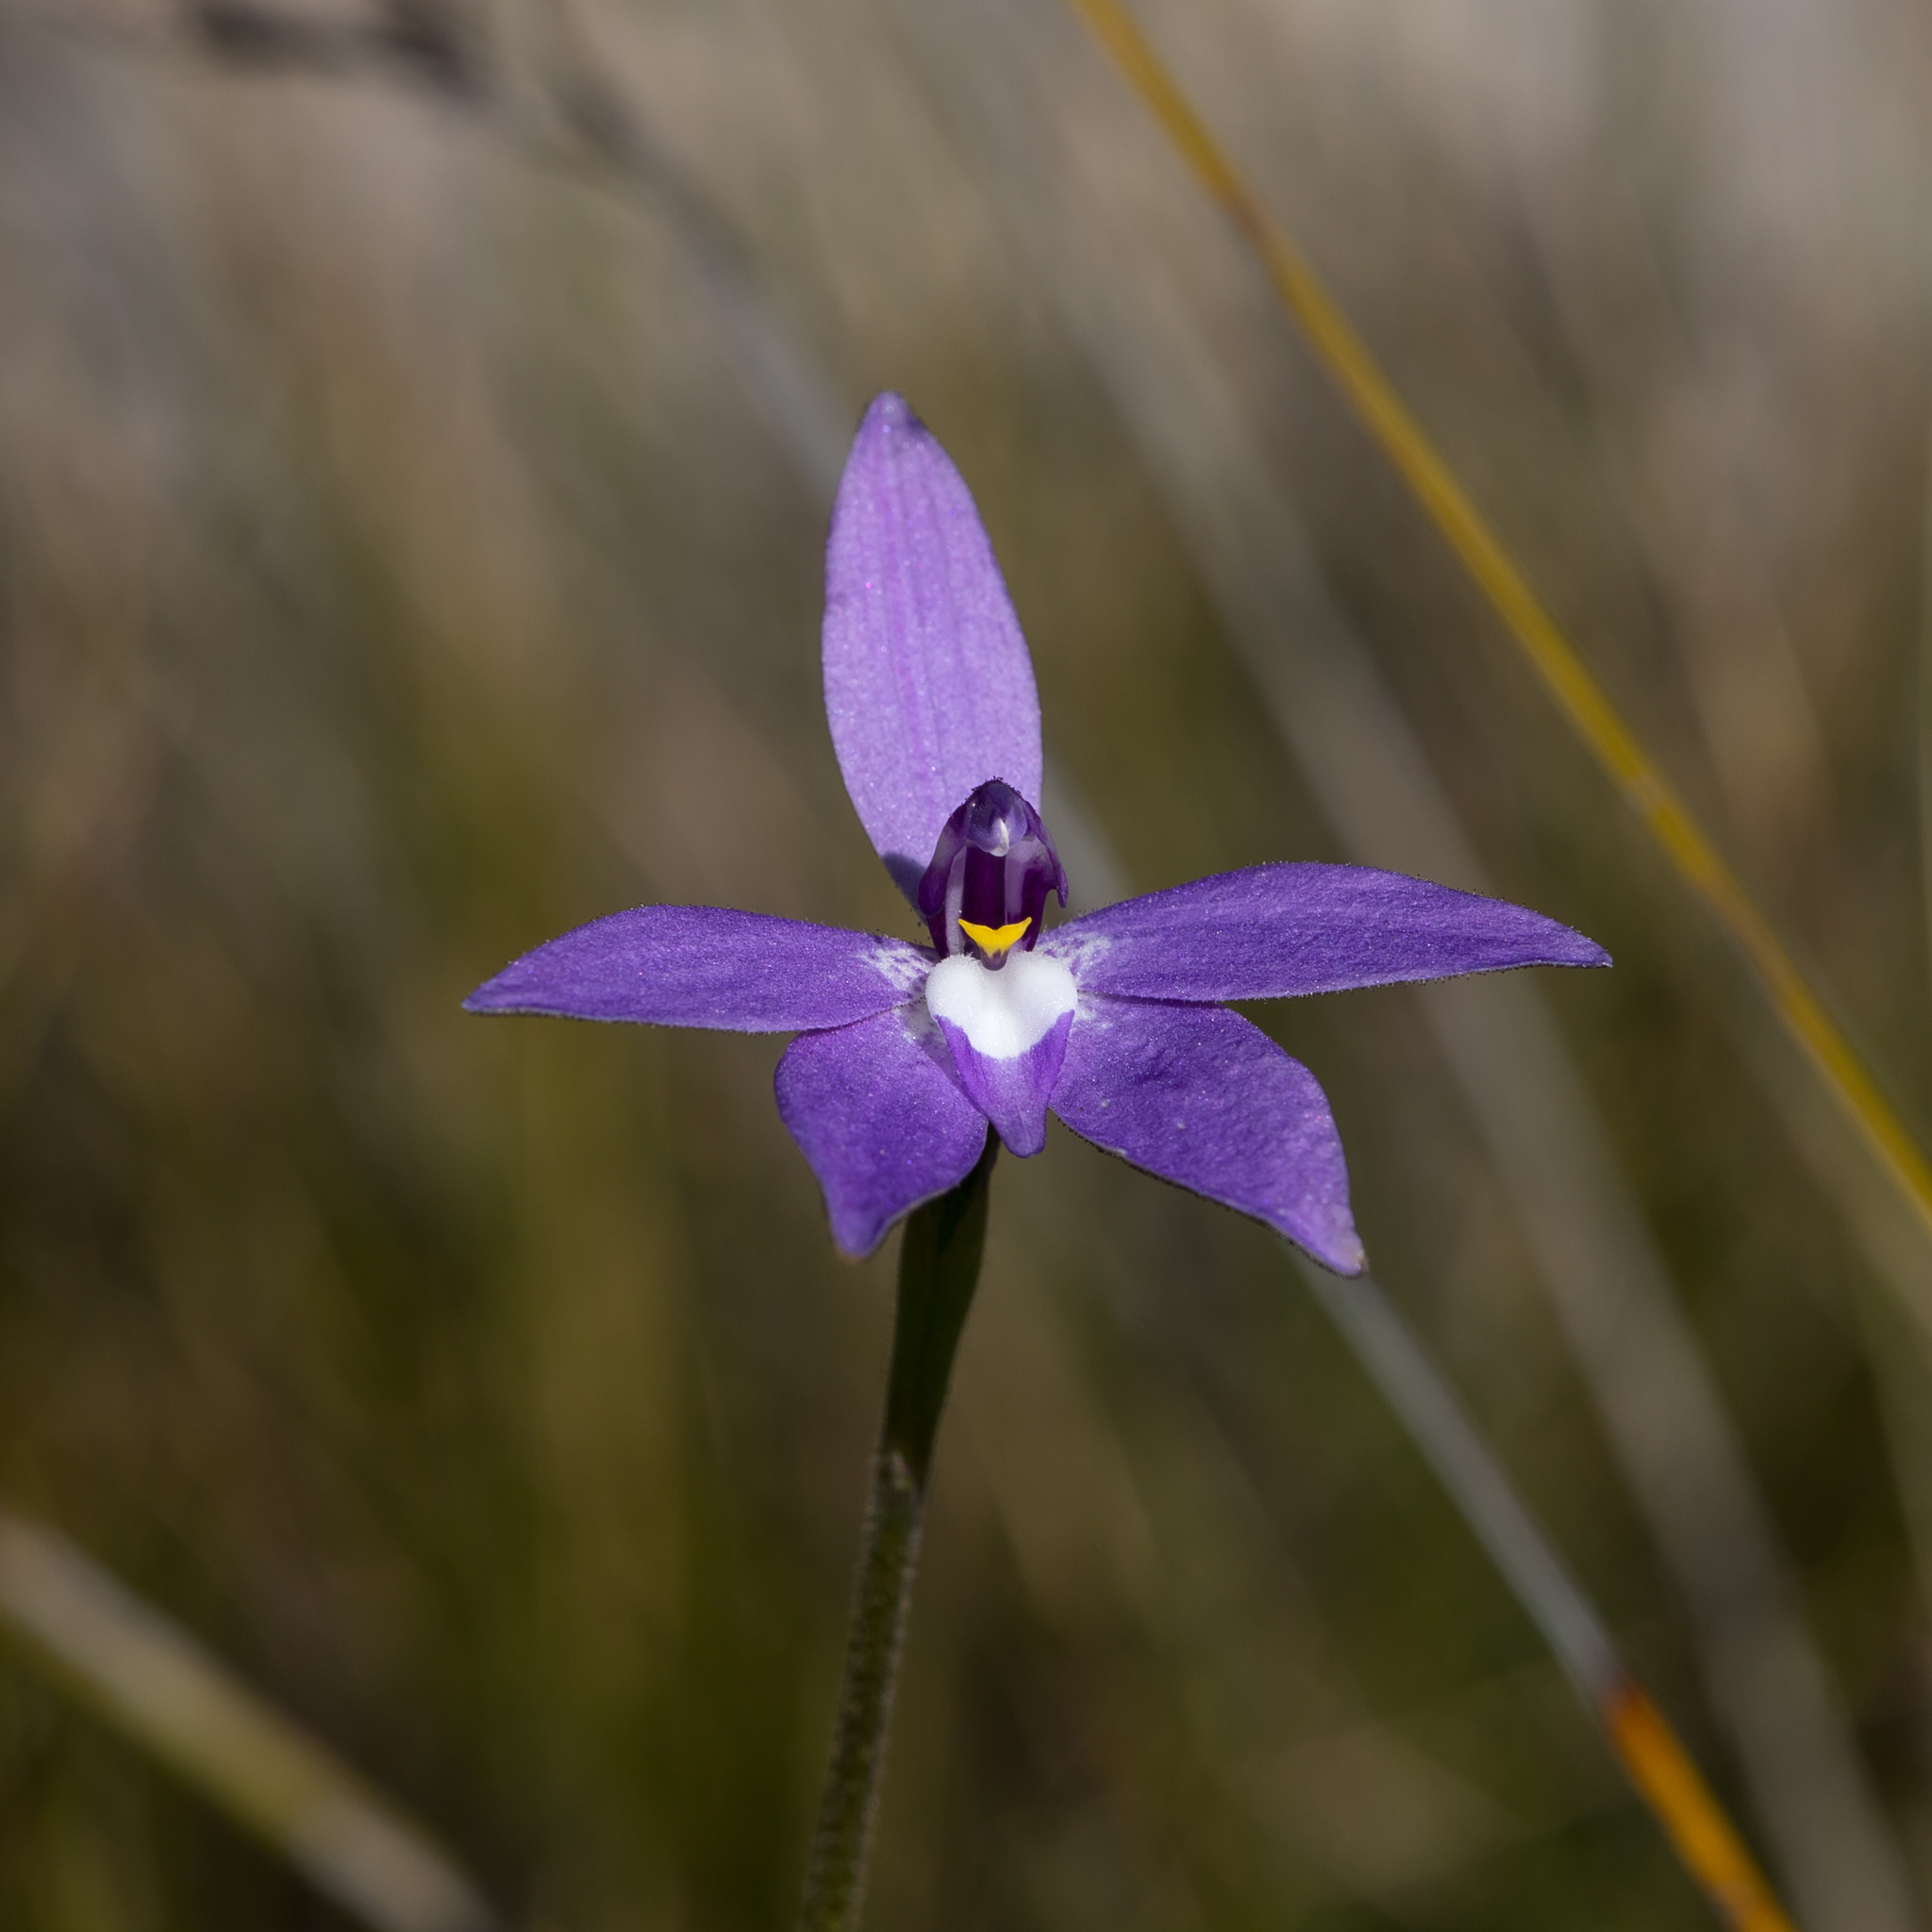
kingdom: Plantae
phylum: Tracheophyta
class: Liliopsida
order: Asparagales
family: Orchidaceae
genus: Caladenia
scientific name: Caladenia major
